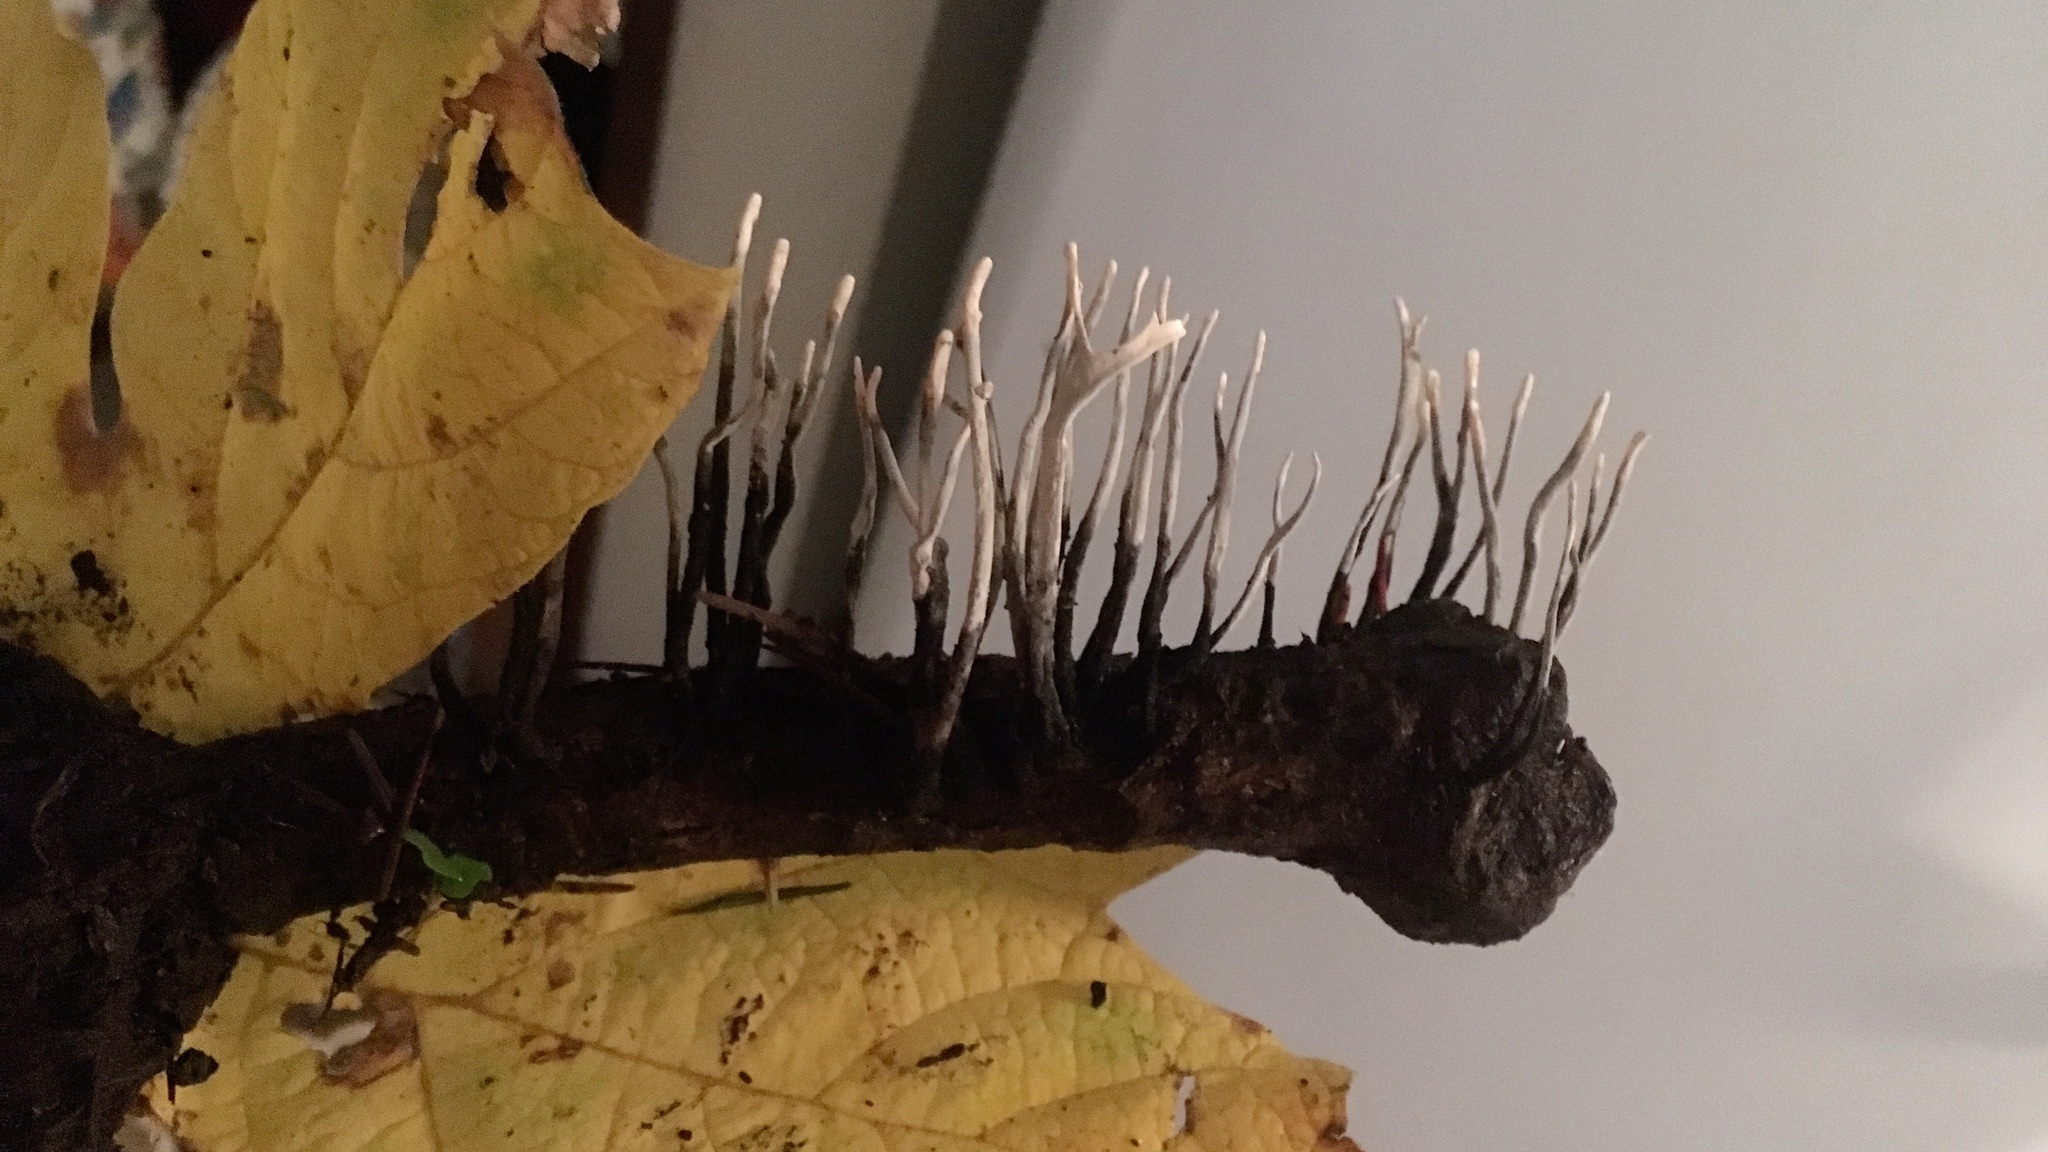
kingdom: Fungi
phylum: Ascomycota
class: Sordariomycetes
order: Xylariales
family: Xylariaceae
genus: Xylaria
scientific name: Xylaria hypoxylon
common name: Candle-snuff fungus
